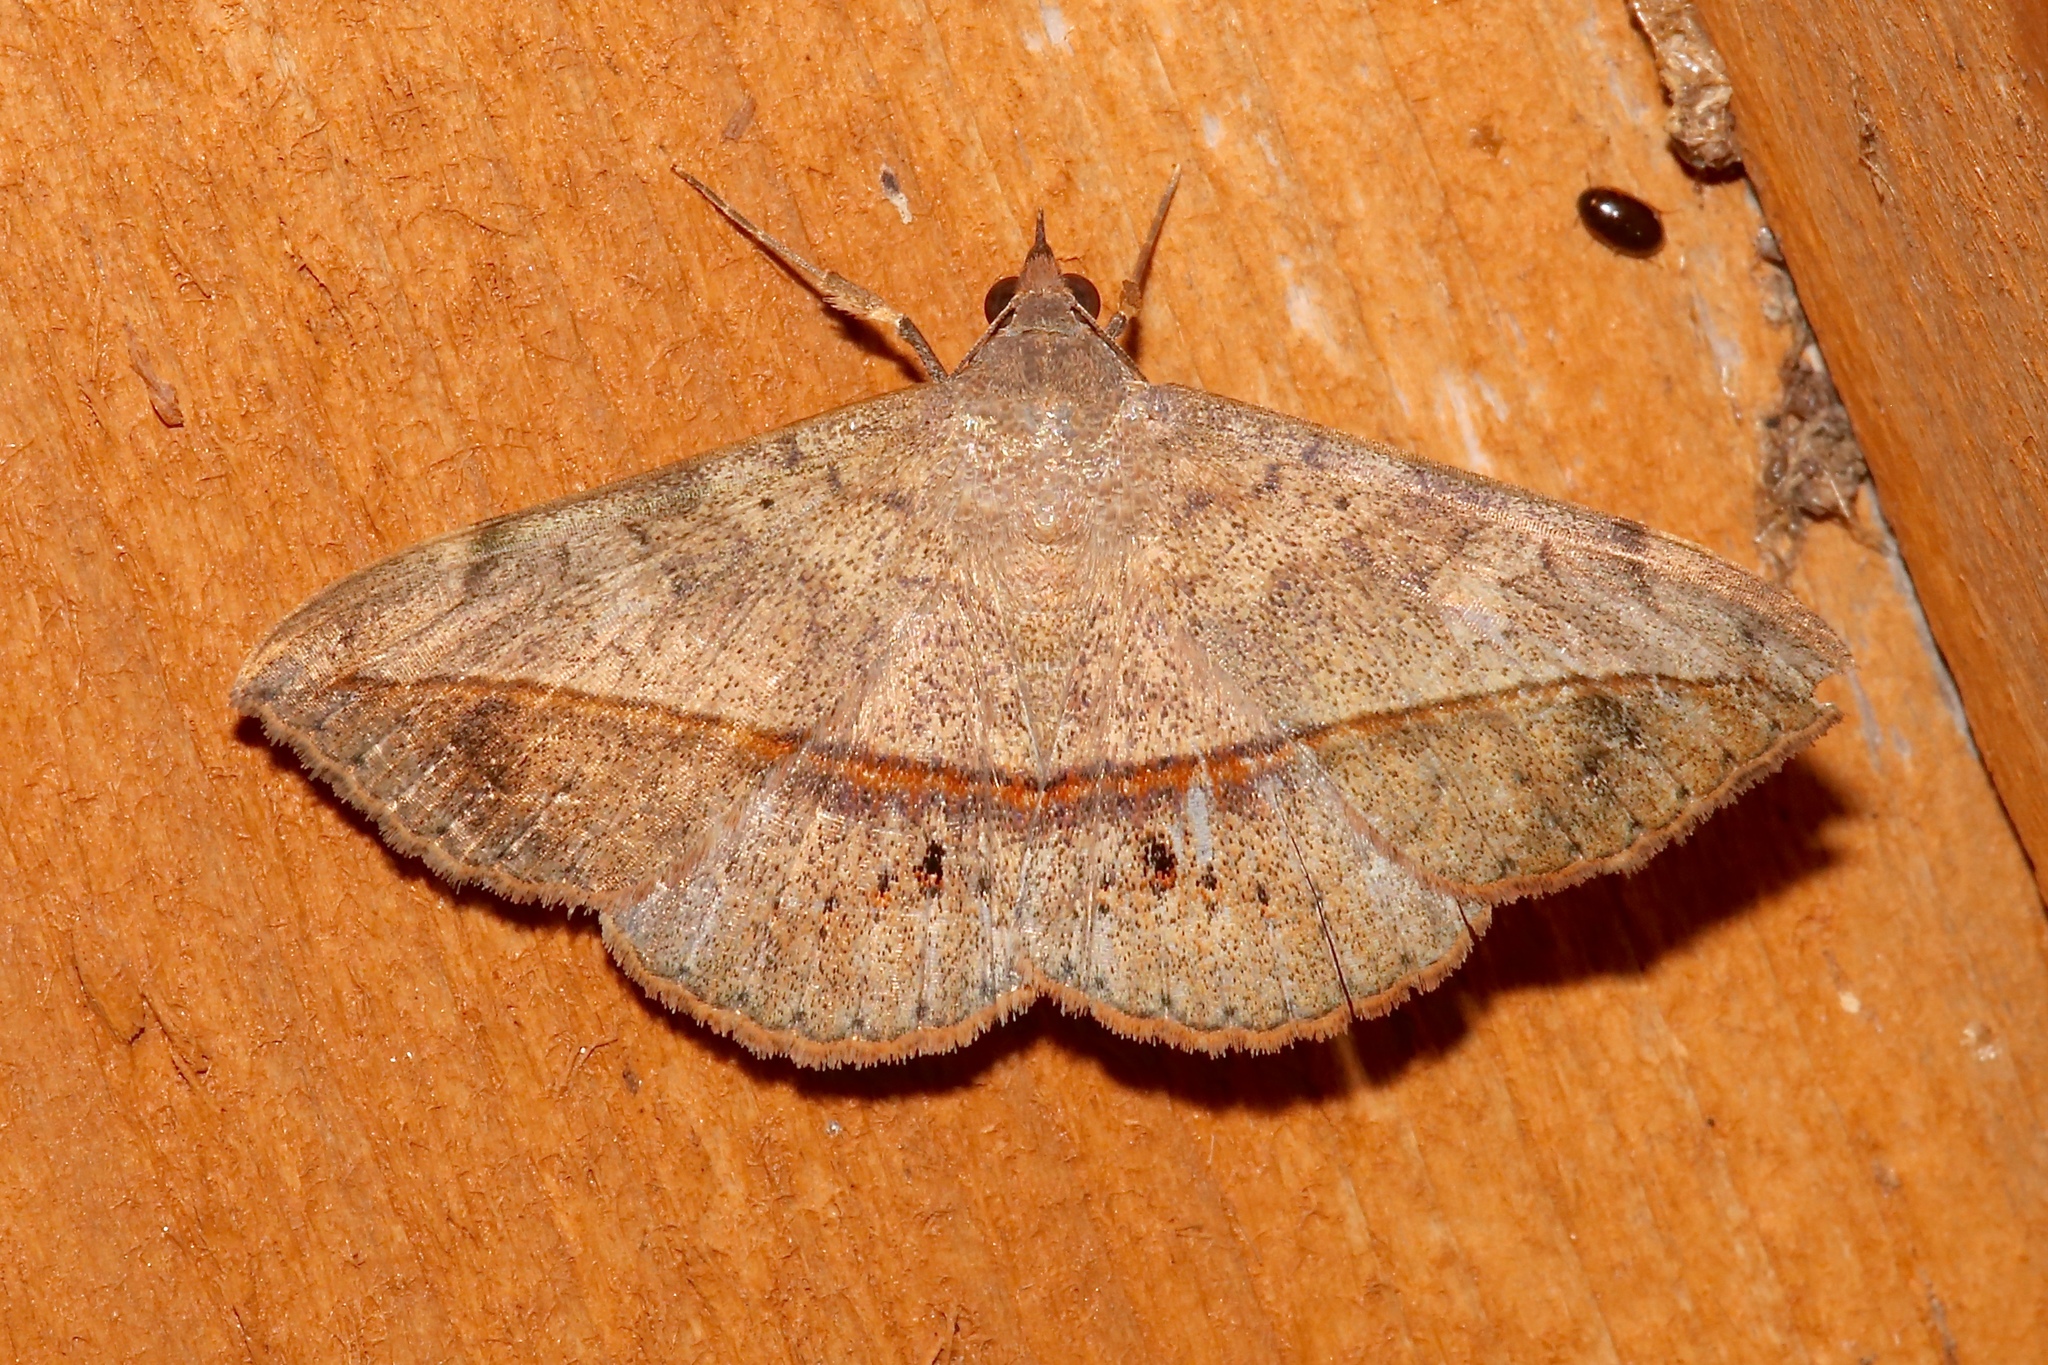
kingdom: Animalia
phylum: Arthropoda
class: Insecta
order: Lepidoptera
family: Erebidae
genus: Anticarsia
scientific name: Anticarsia gemmatalis
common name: Cutworm moth
